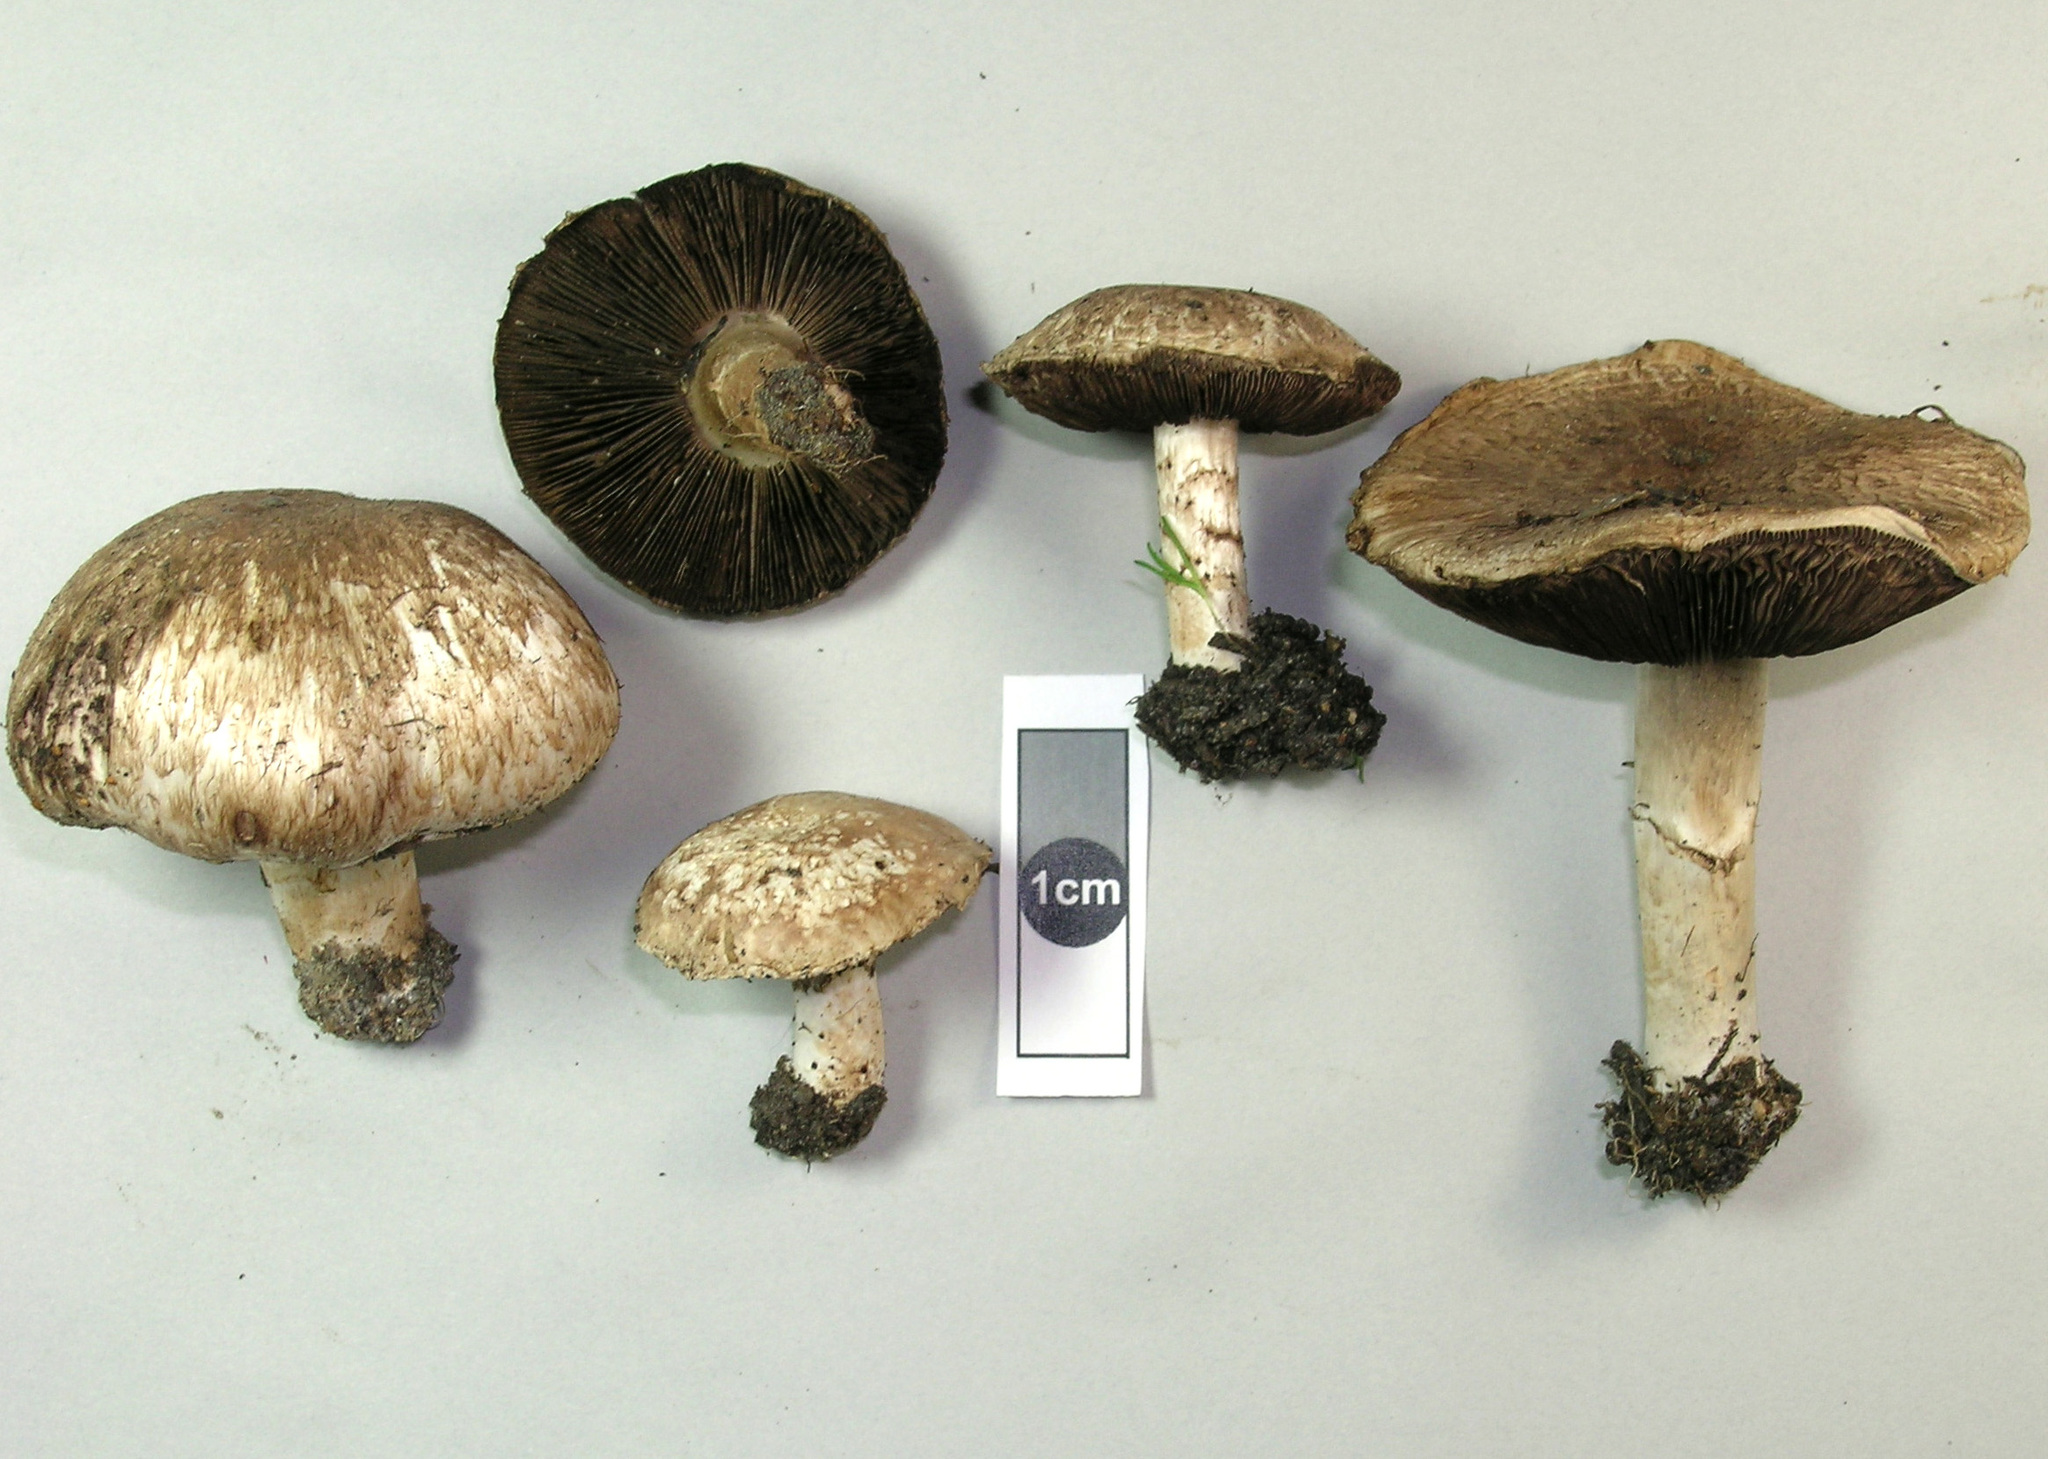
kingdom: Fungi
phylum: Basidiomycota
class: Agaricomycetes
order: Agaricales
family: Agaricaceae
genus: Agaricus
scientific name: Agaricus bisporus
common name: Cultivated mushroom
